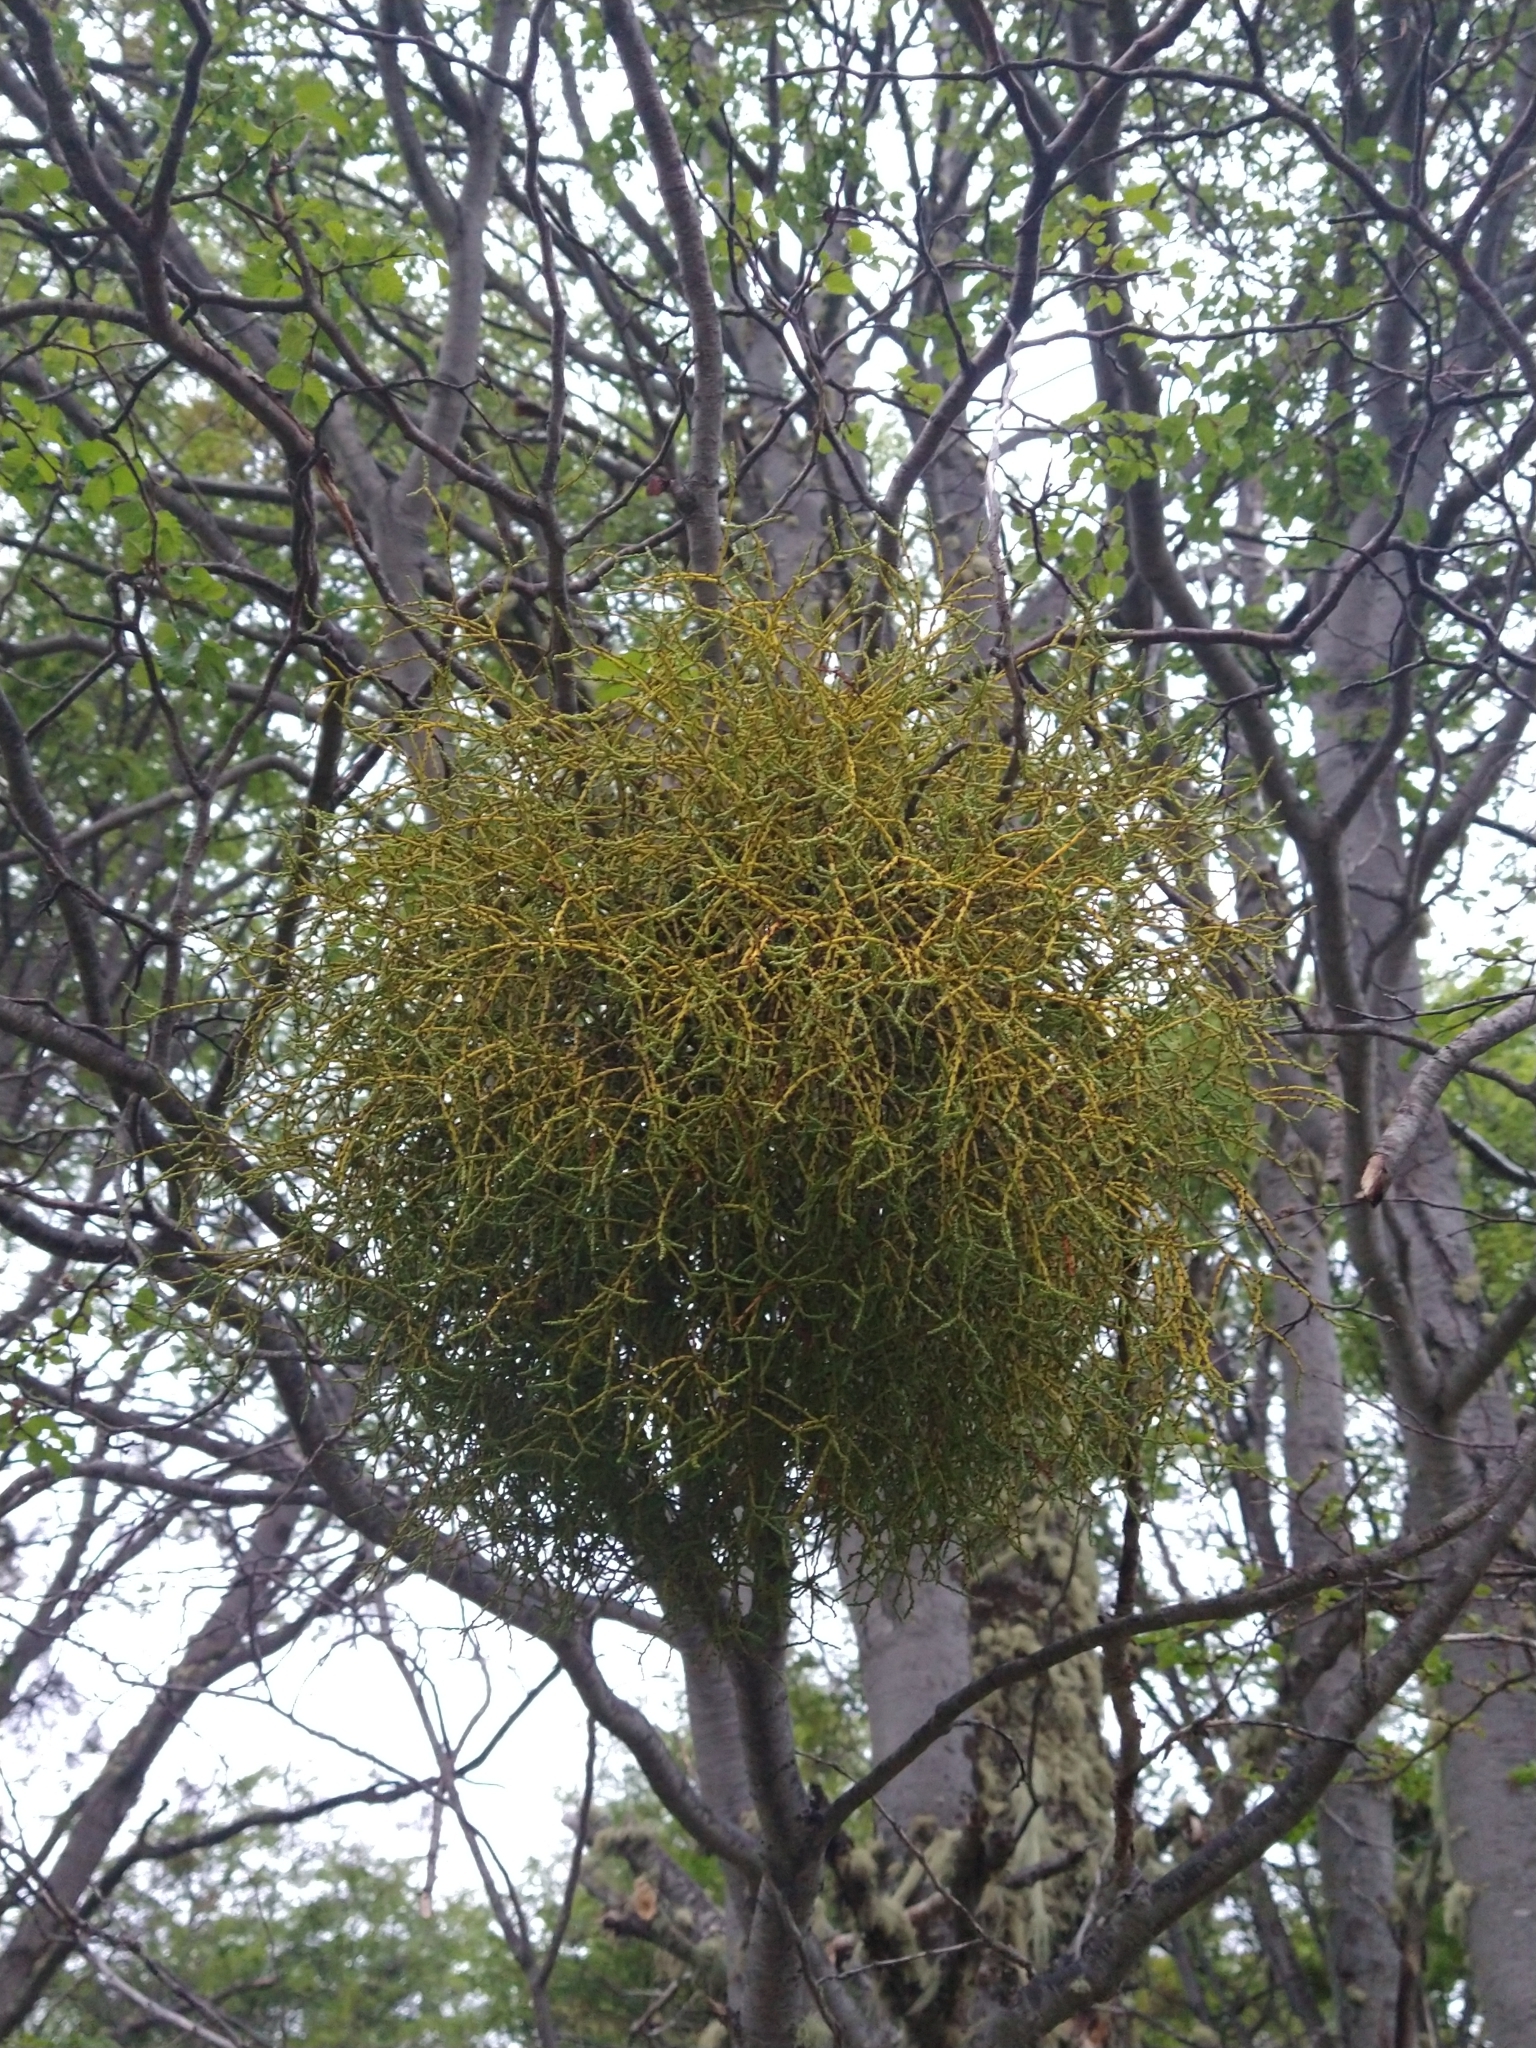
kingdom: Plantae
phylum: Tracheophyta
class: Magnoliopsida
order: Santalales
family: Misodendraceae
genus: Misodendrum
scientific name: Misodendrum punctulatum
